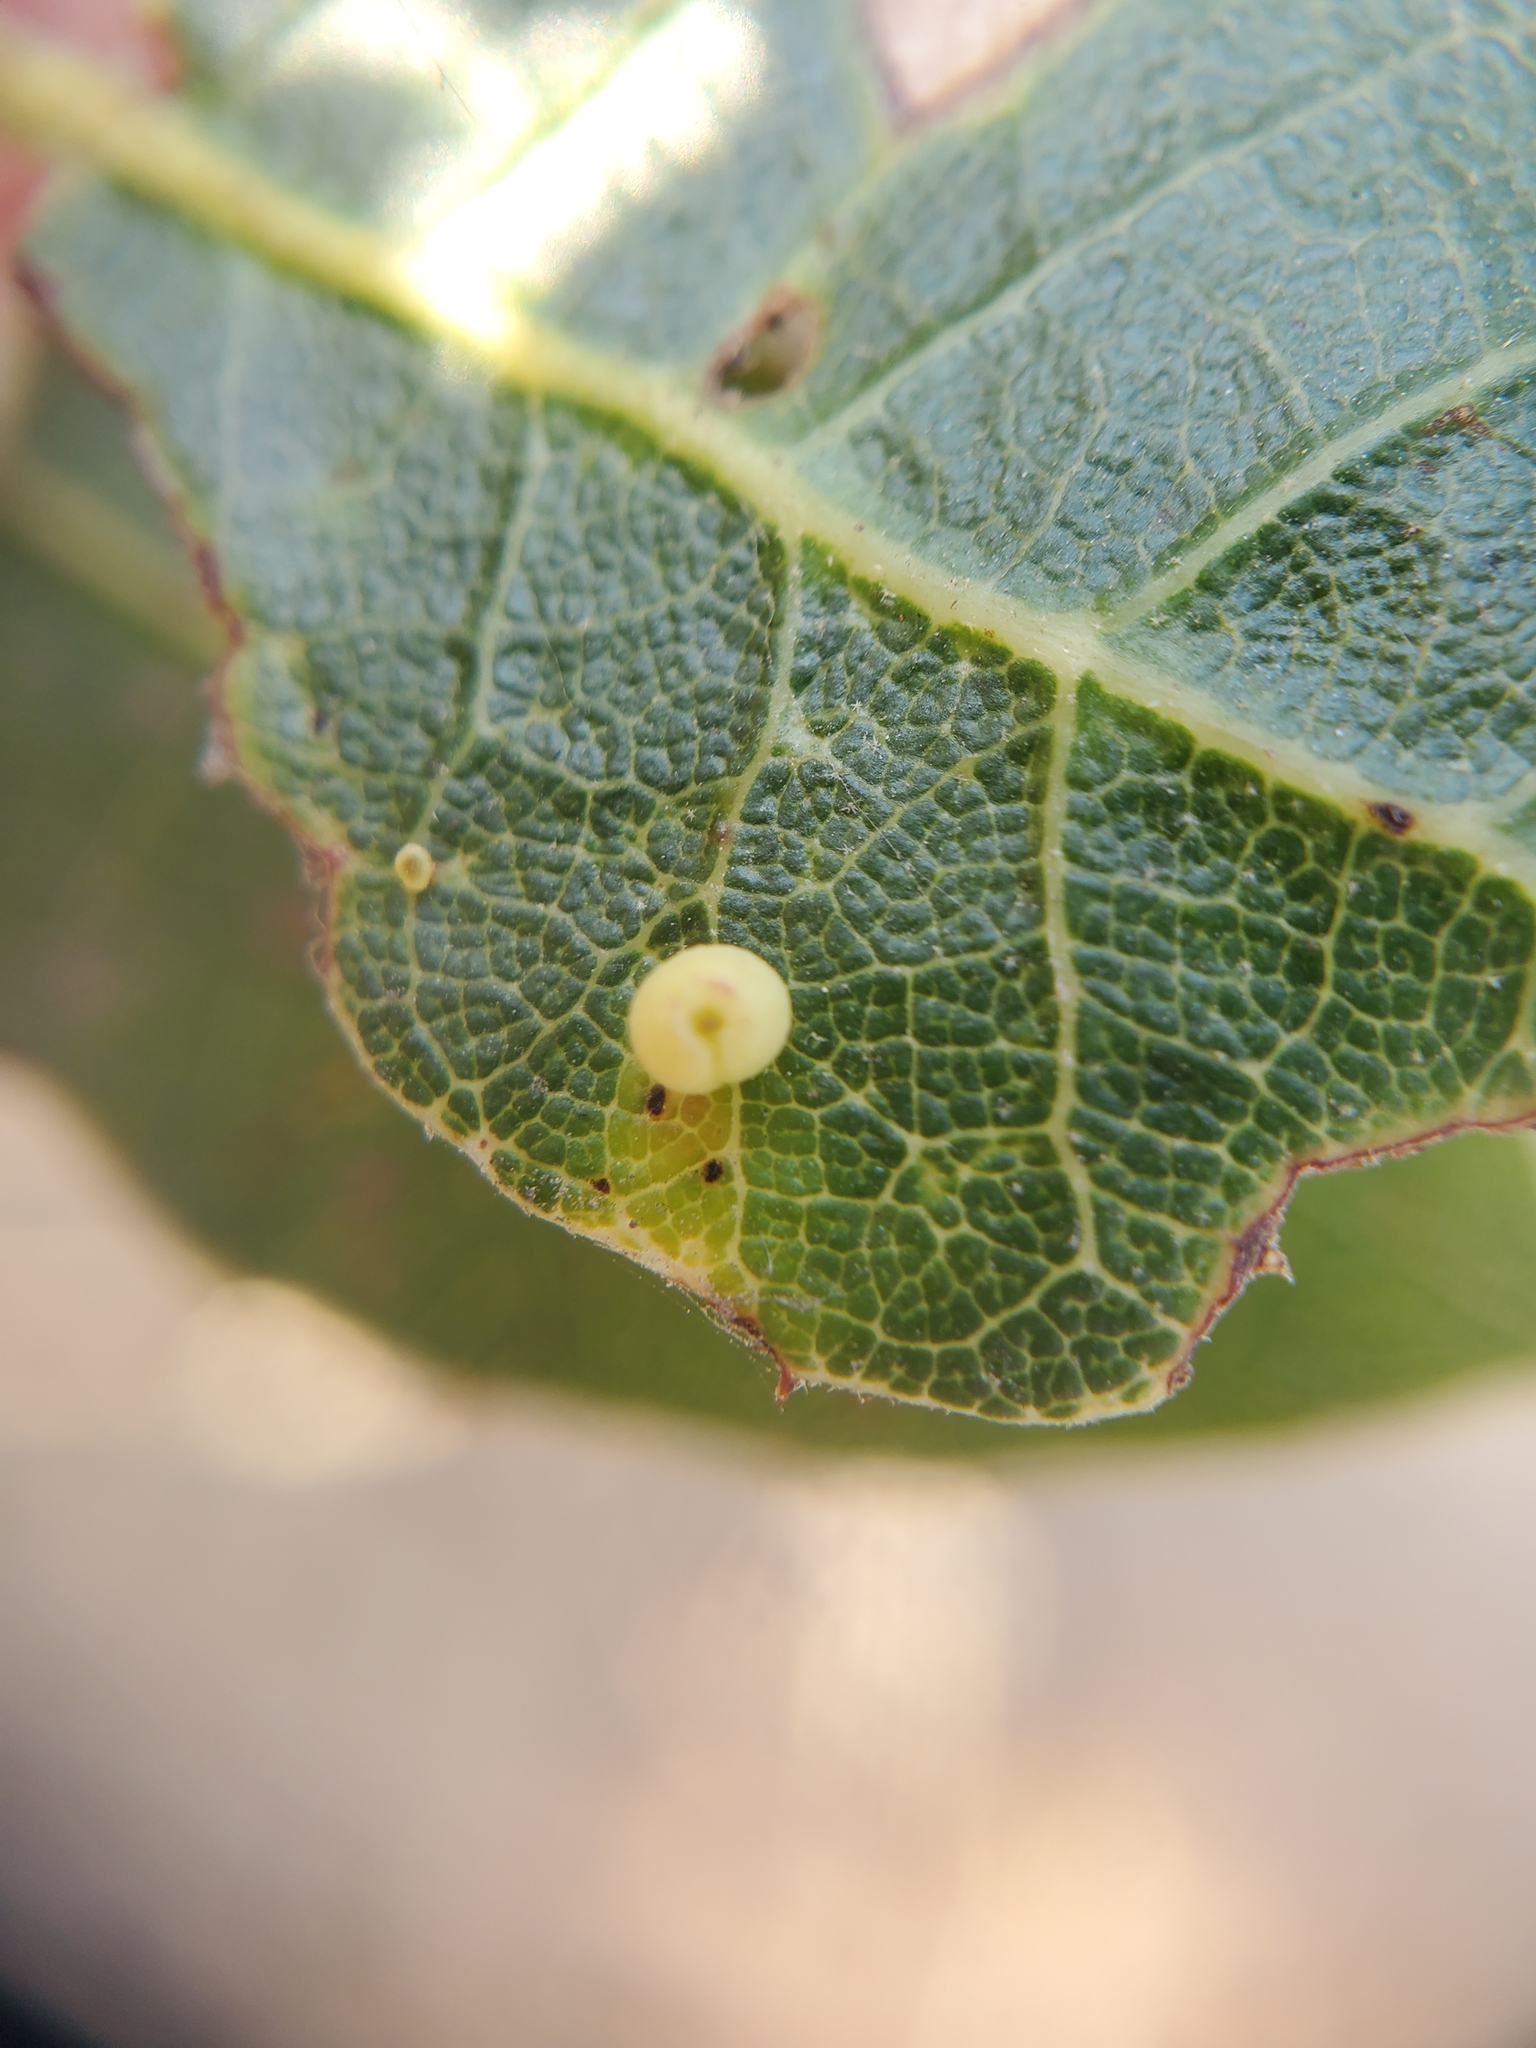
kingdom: Animalia
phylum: Arthropoda
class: Insecta
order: Hymenoptera
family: Cynipidae
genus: Dryocosmus
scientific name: Dryocosmus
